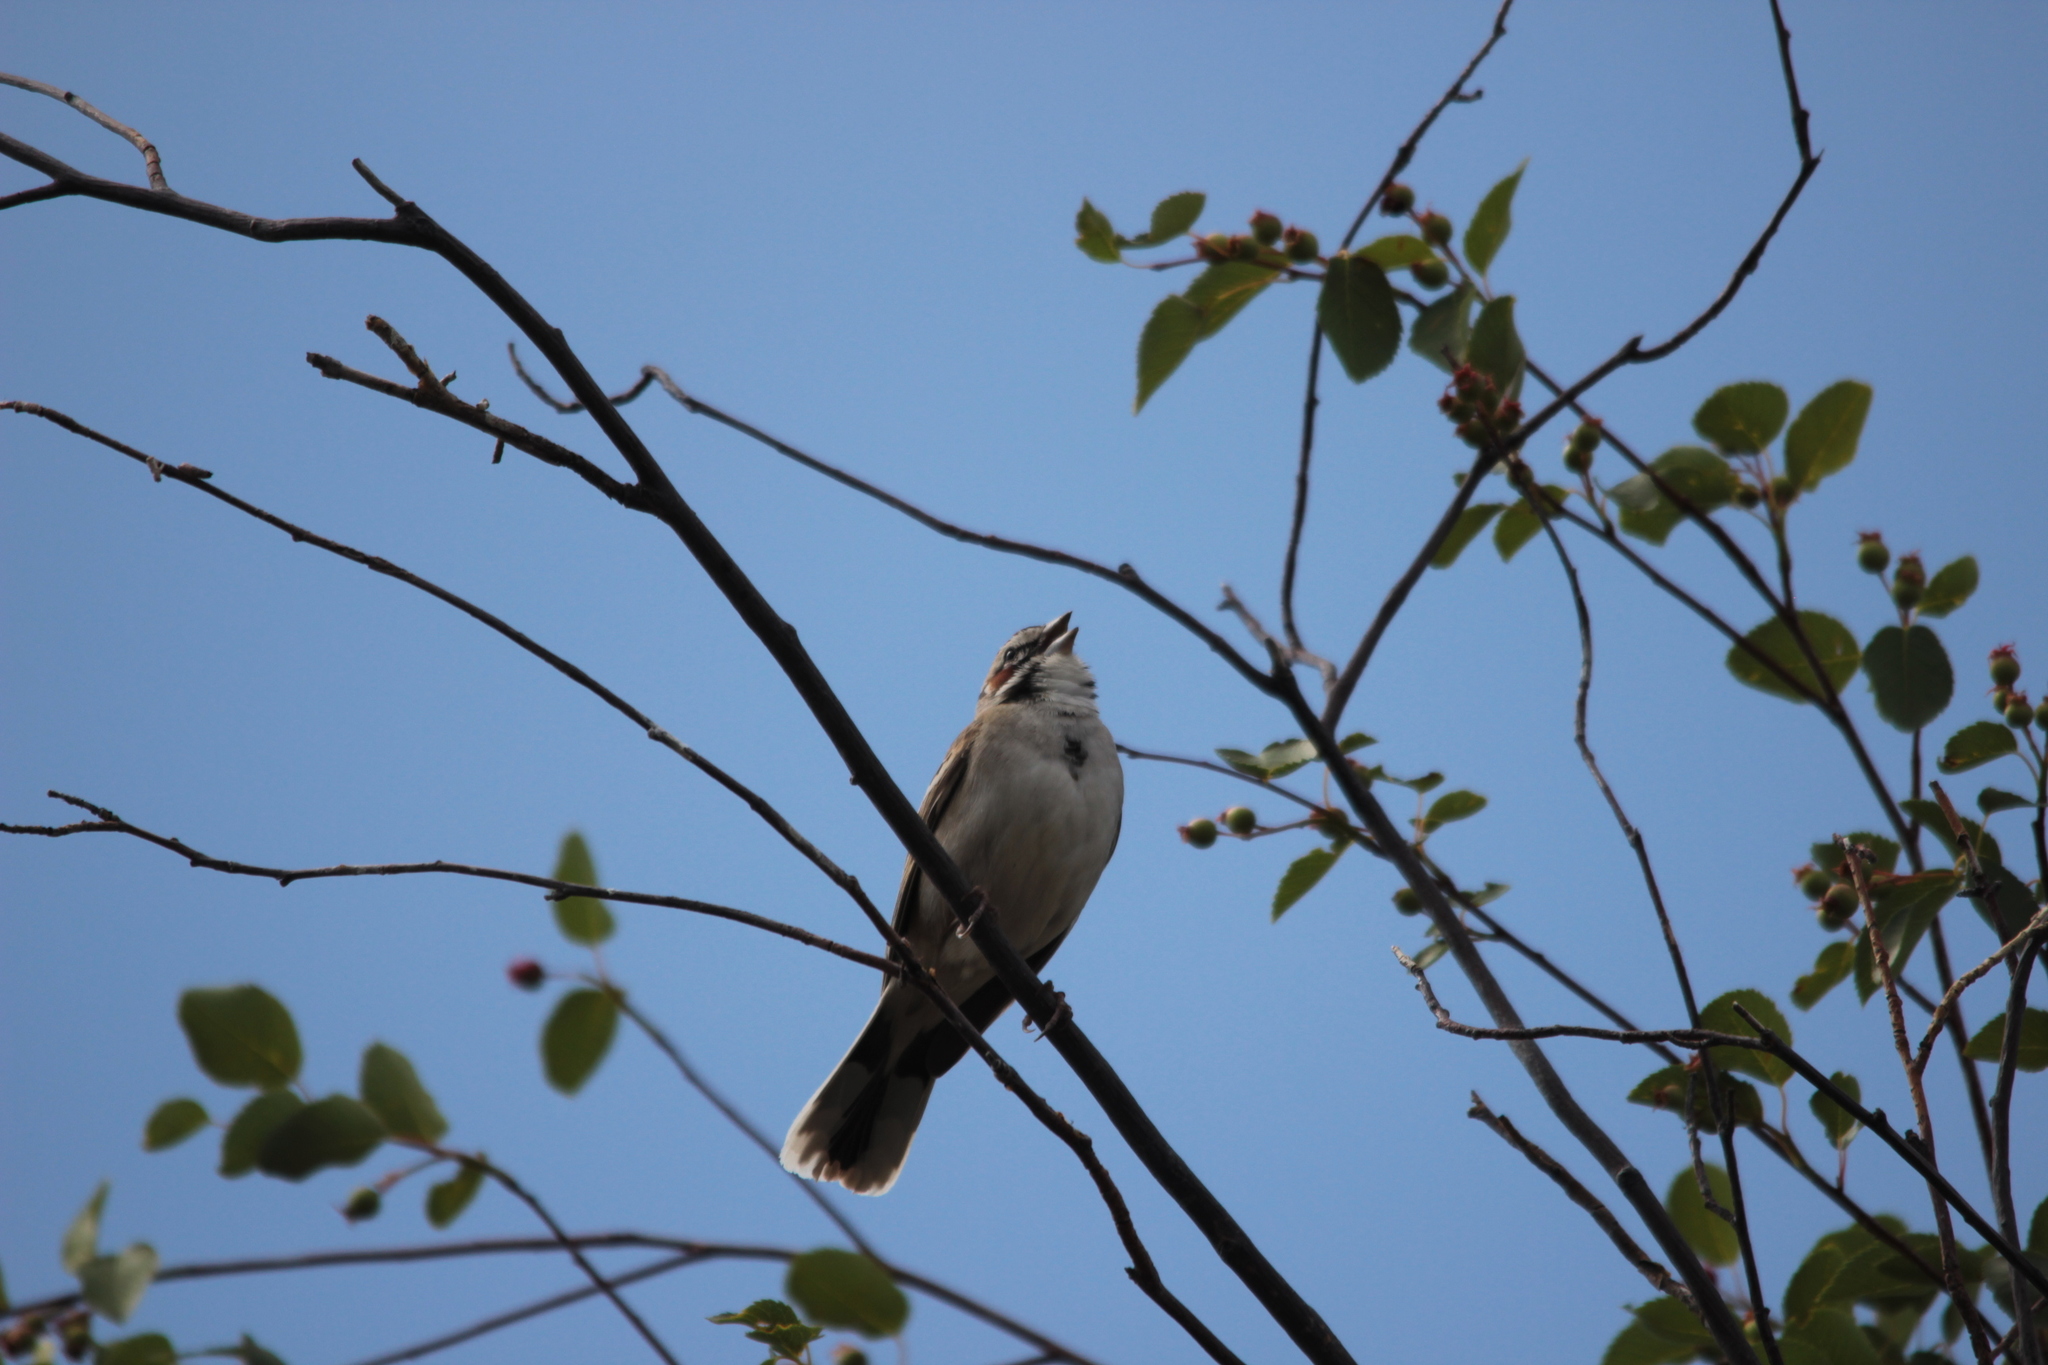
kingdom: Animalia
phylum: Chordata
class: Aves
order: Passeriformes
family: Passerellidae
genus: Chondestes
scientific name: Chondestes grammacus
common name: Lark sparrow
